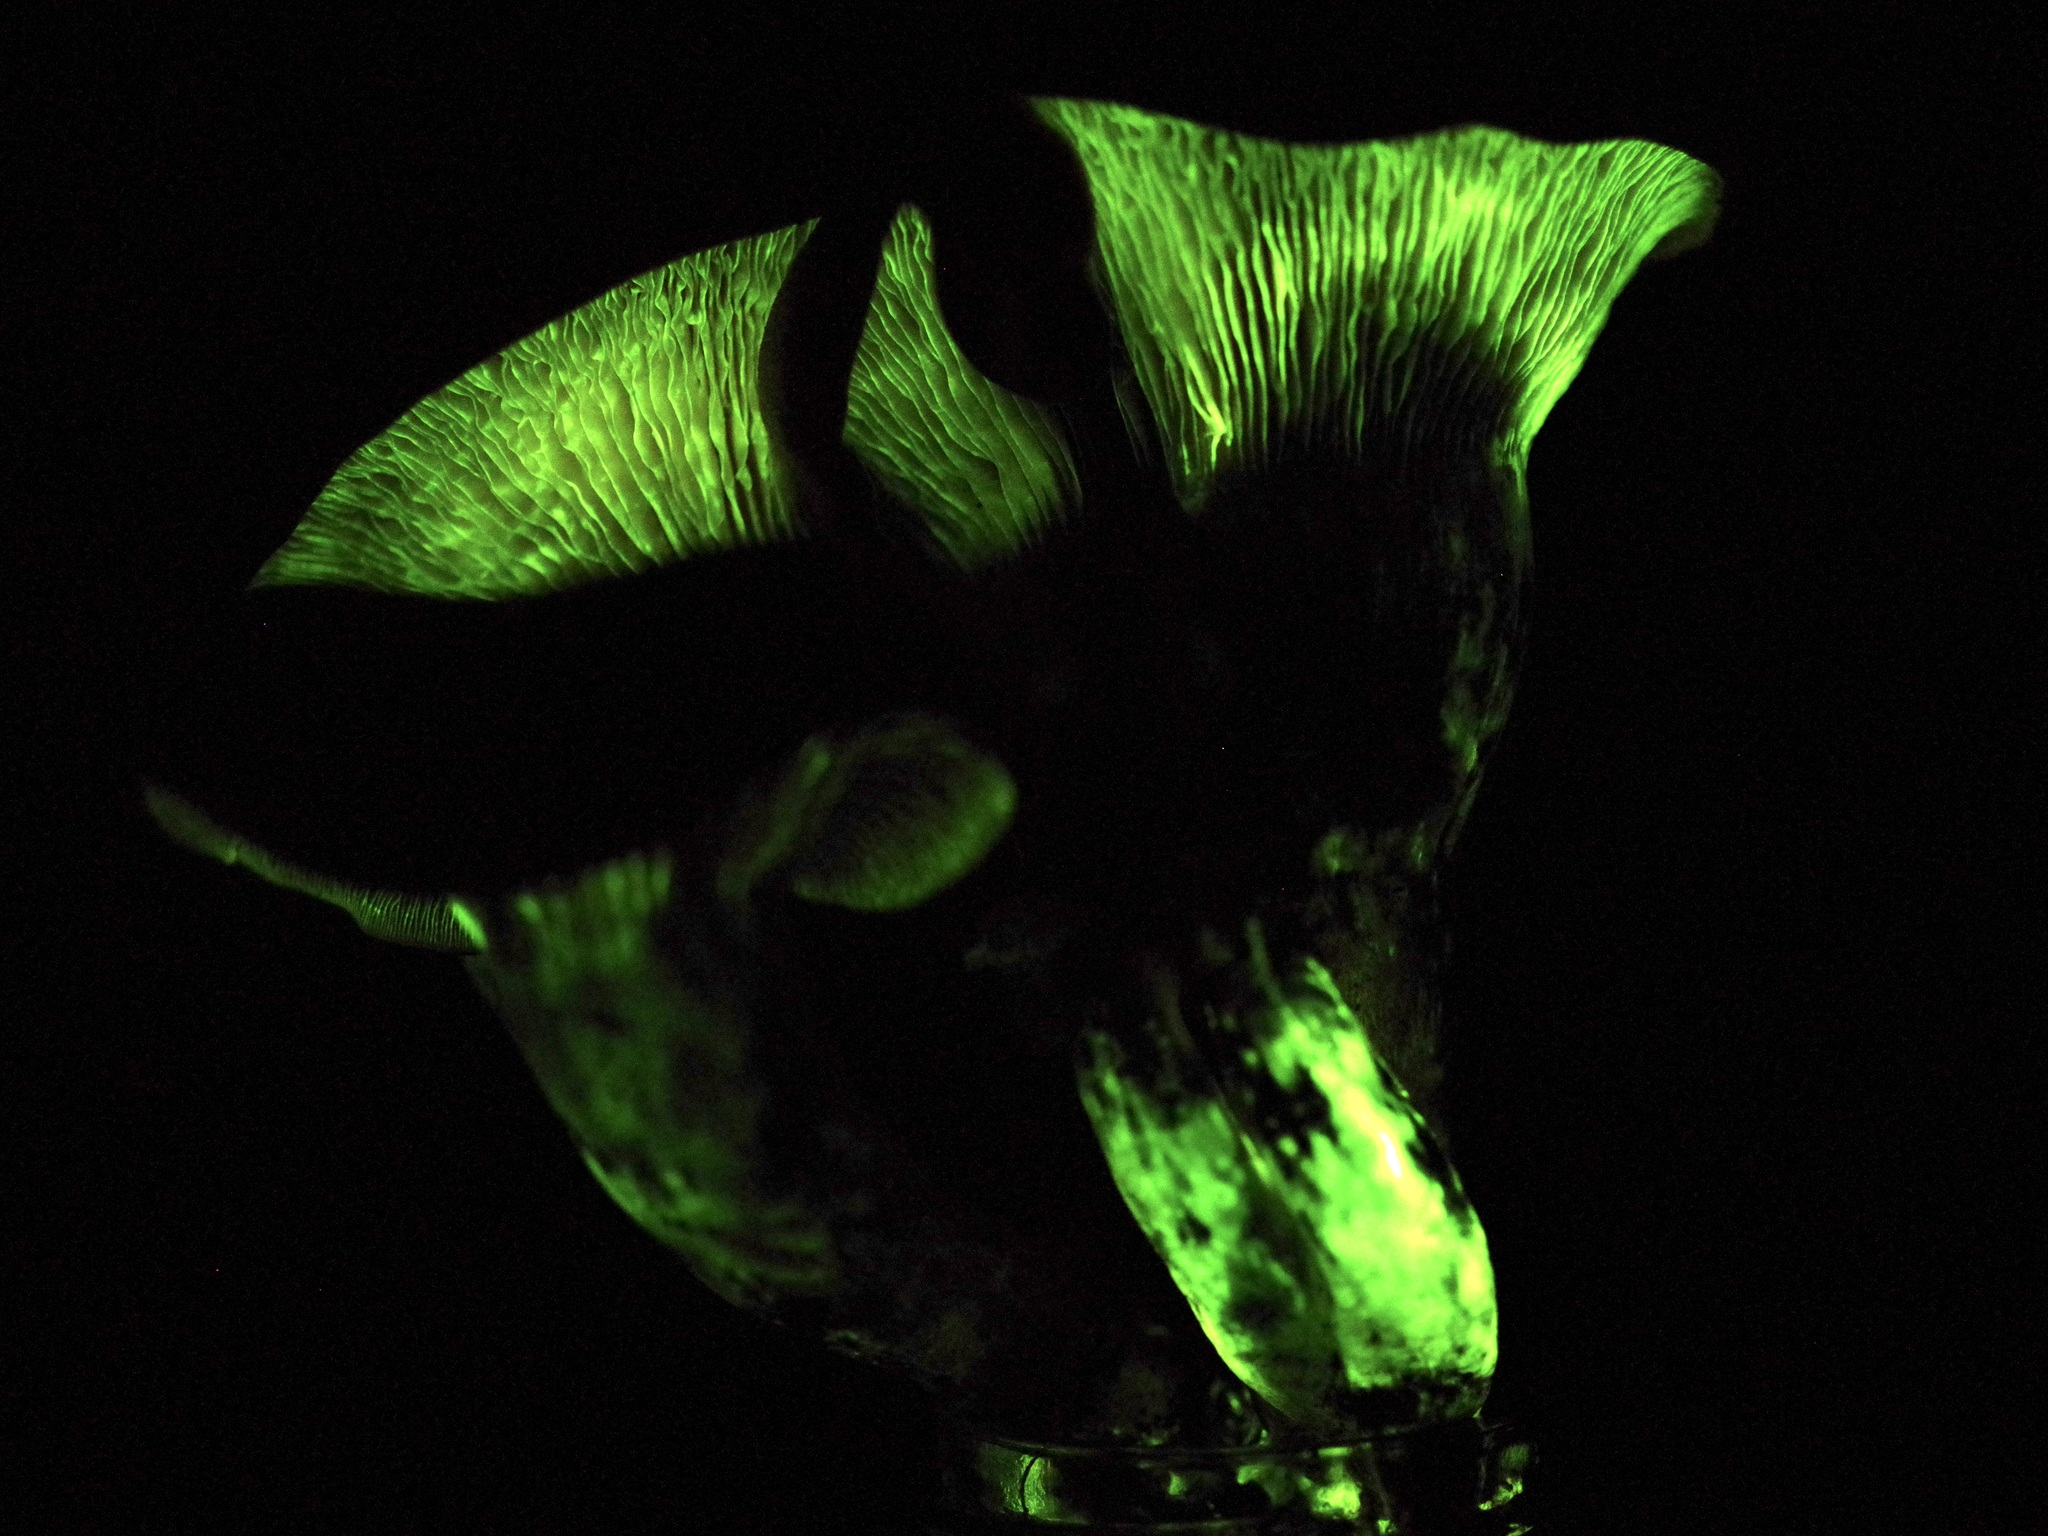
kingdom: Fungi
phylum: Basidiomycota
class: Agaricomycetes
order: Agaricales
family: Omphalotaceae
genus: Omphalotus
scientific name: Omphalotus subilludens
